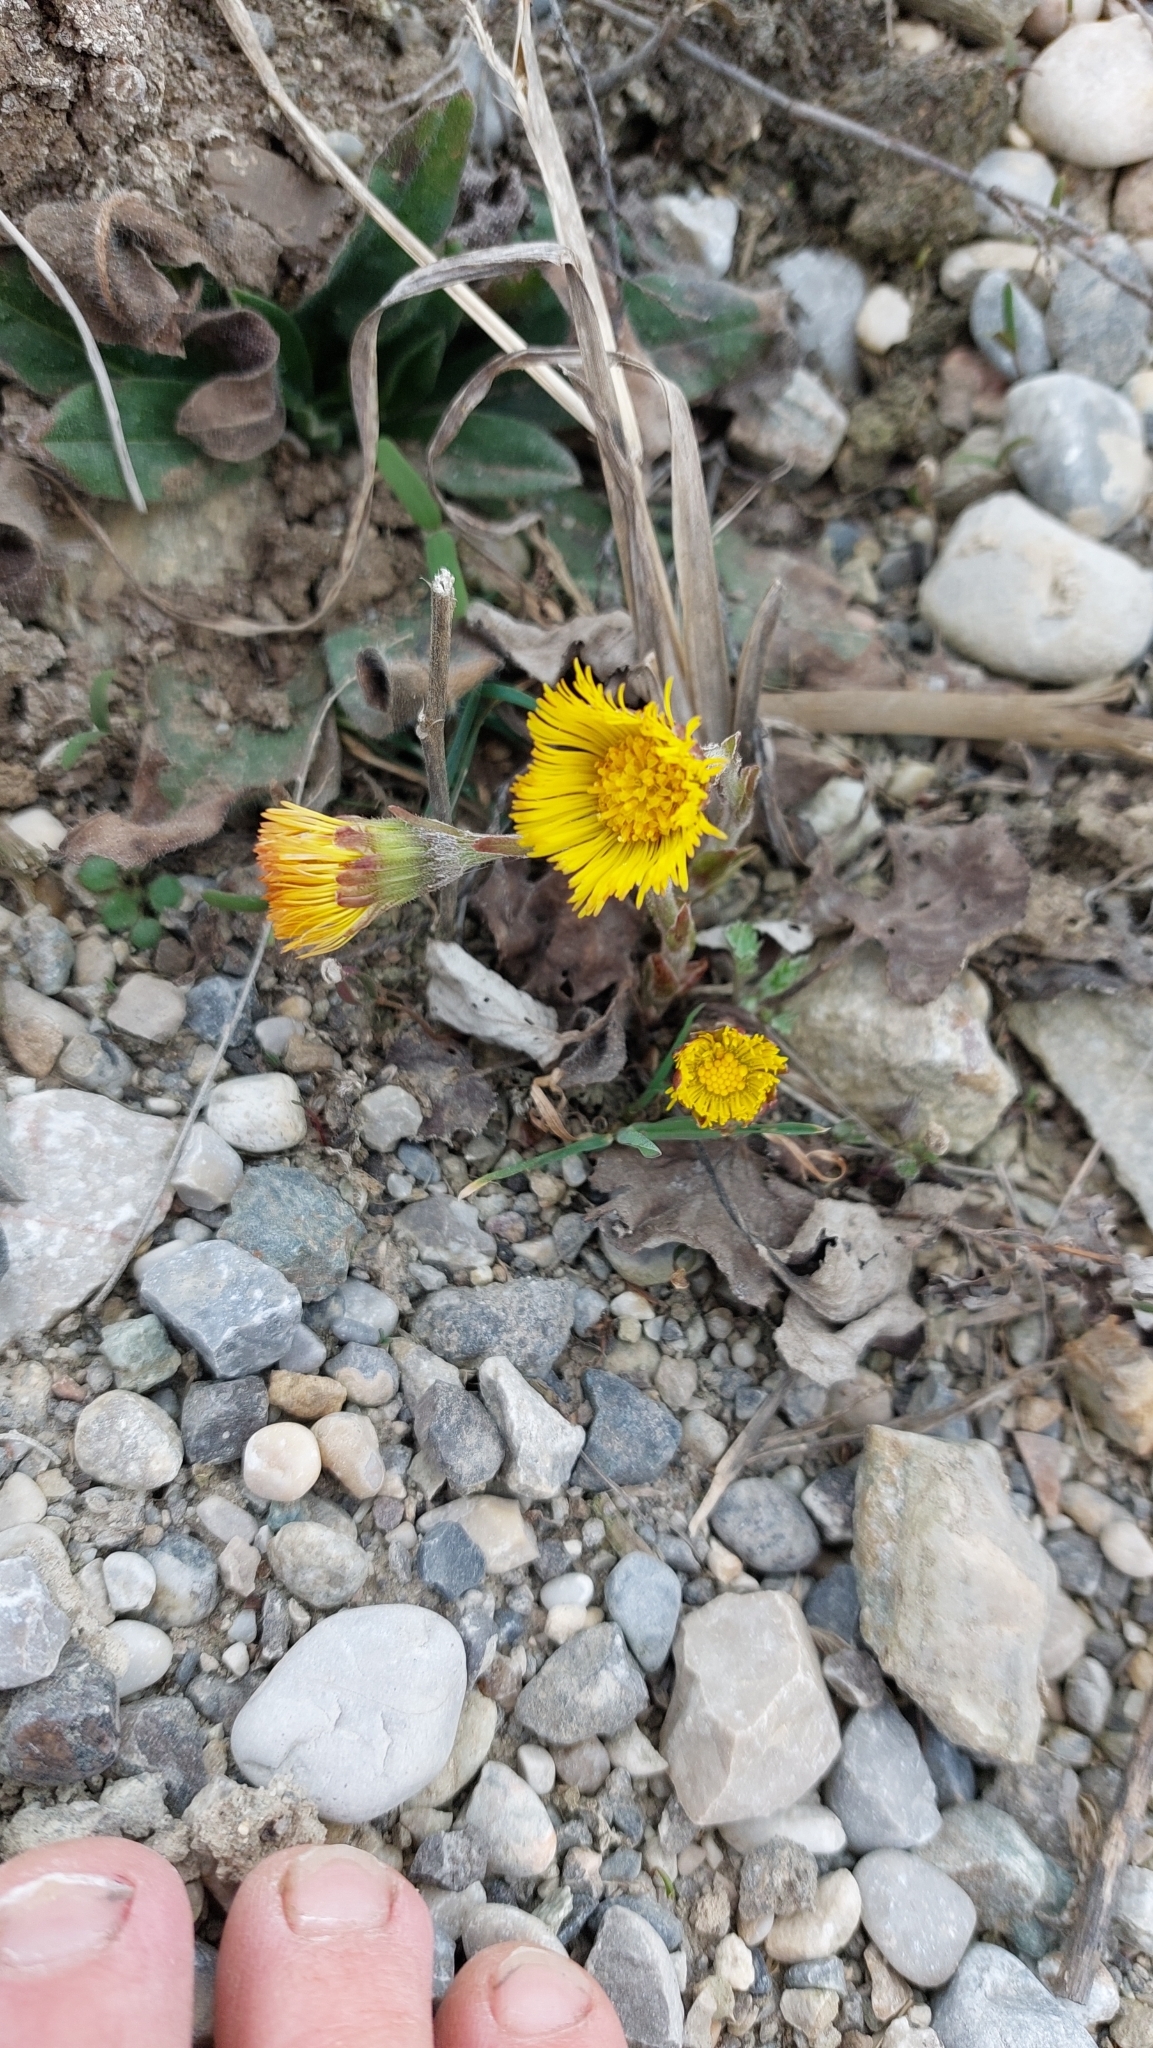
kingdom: Plantae
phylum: Tracheophyta
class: Magnoliopsida
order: Asterales
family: Asteraceae
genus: Tussilago
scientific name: Tussilago farfara
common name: Coltsfoot
